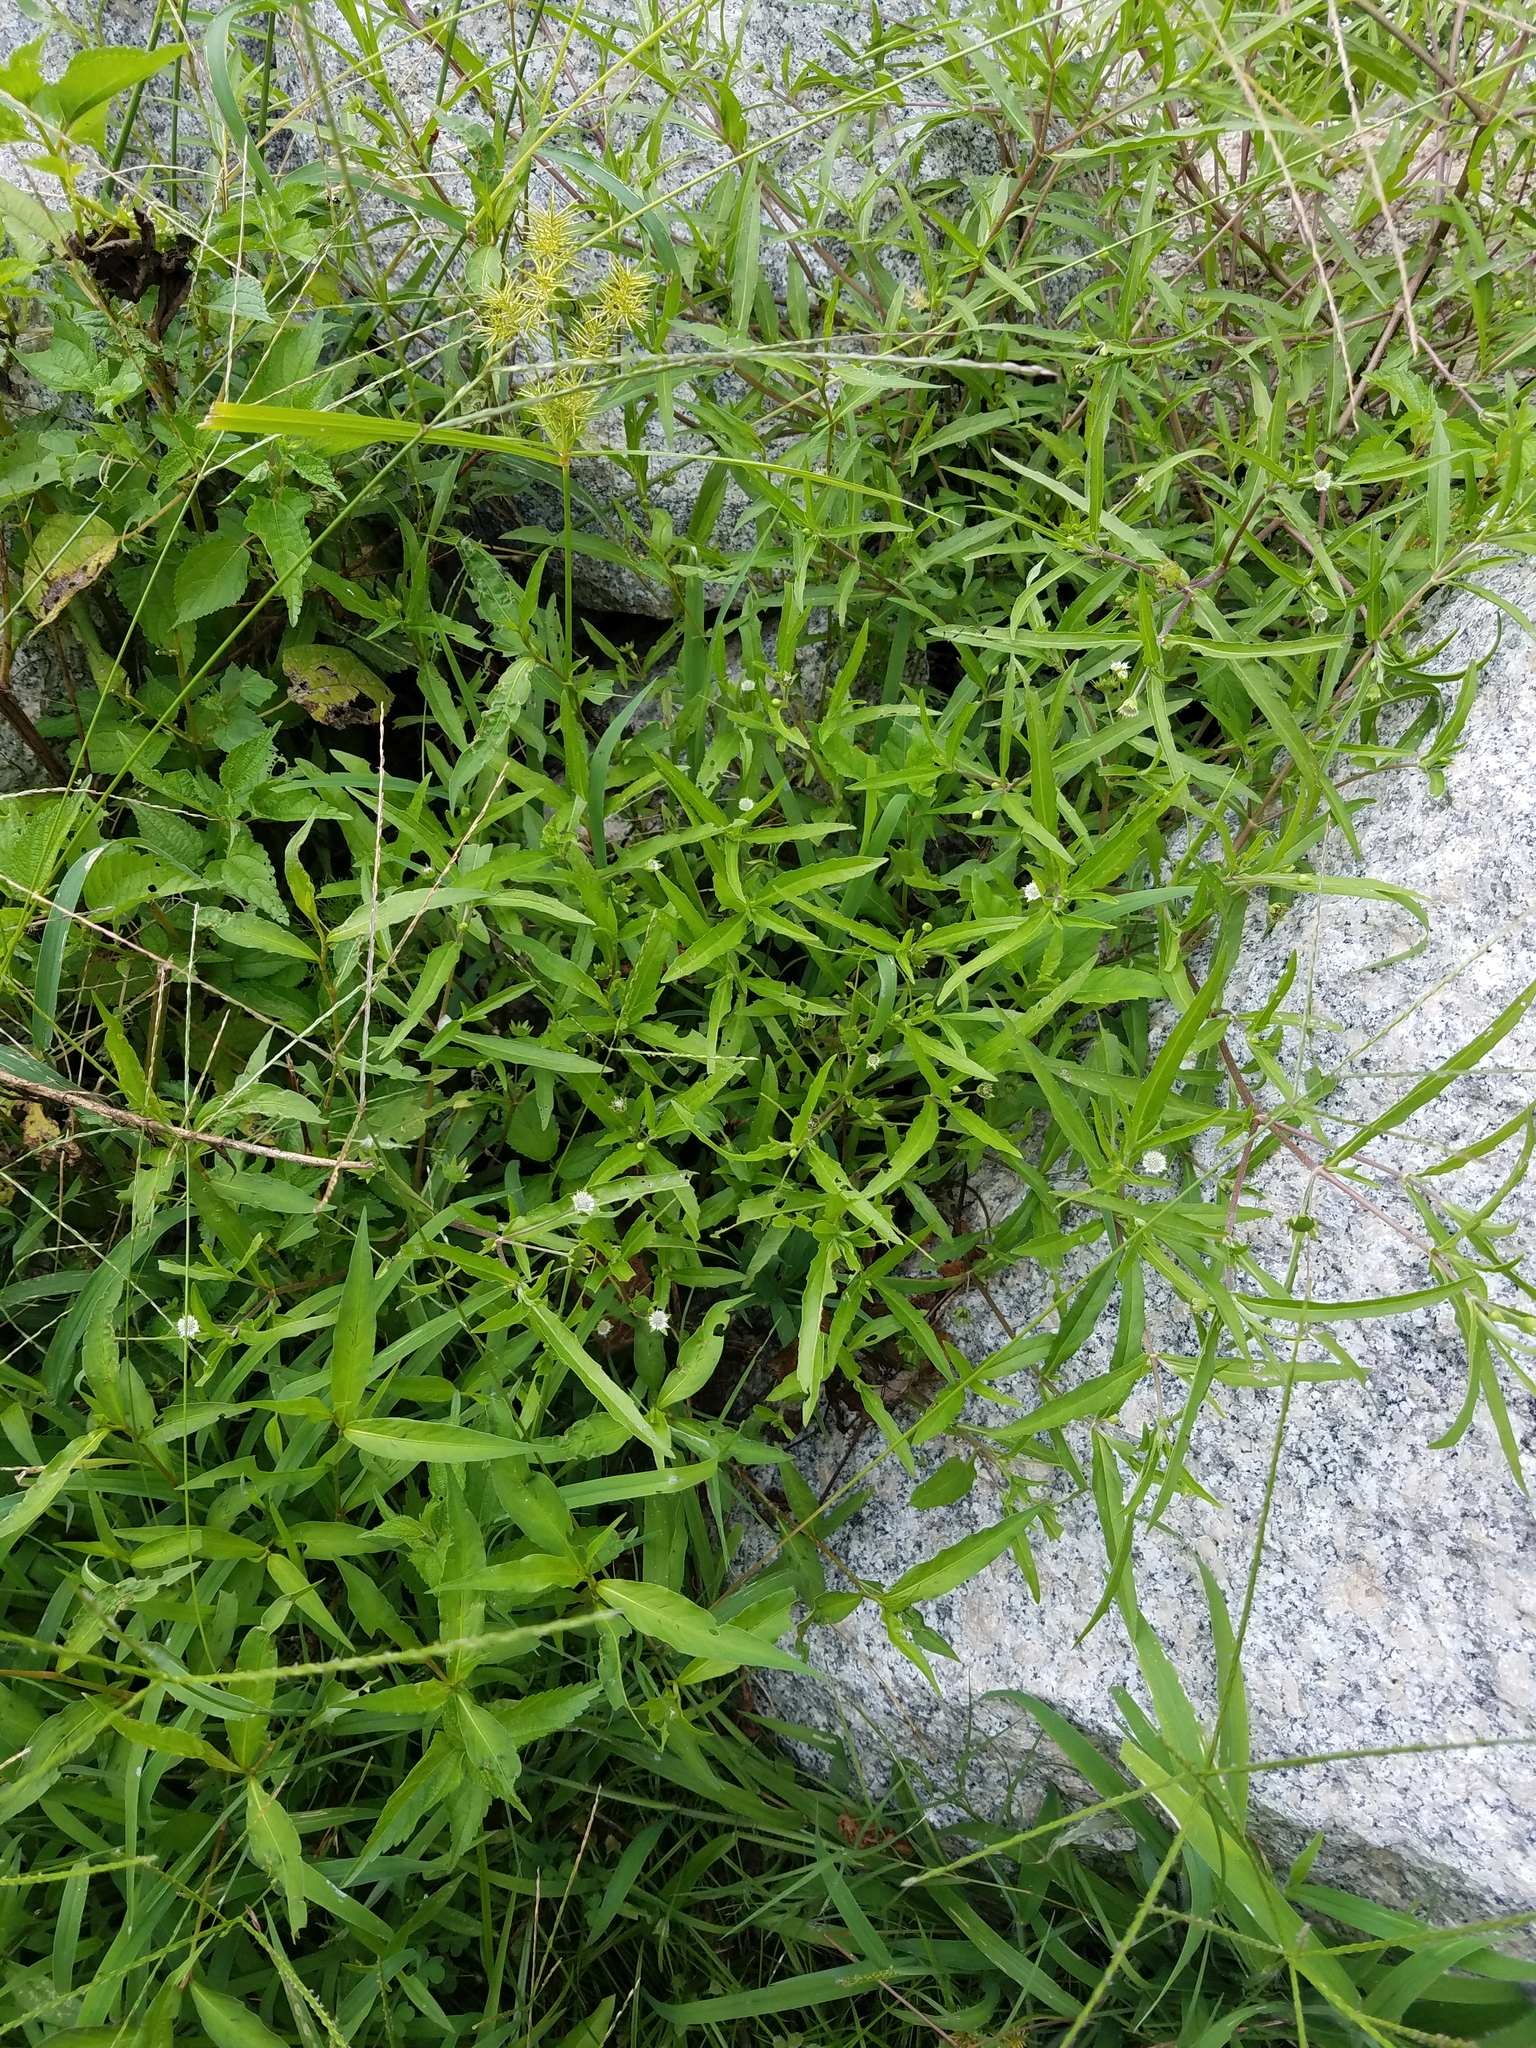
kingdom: Plantae
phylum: Tracheophyta
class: Magnoliopsida
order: Asterales
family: Asteraceae
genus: Eclipta
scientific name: Eclipta prostrata
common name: False daisy
